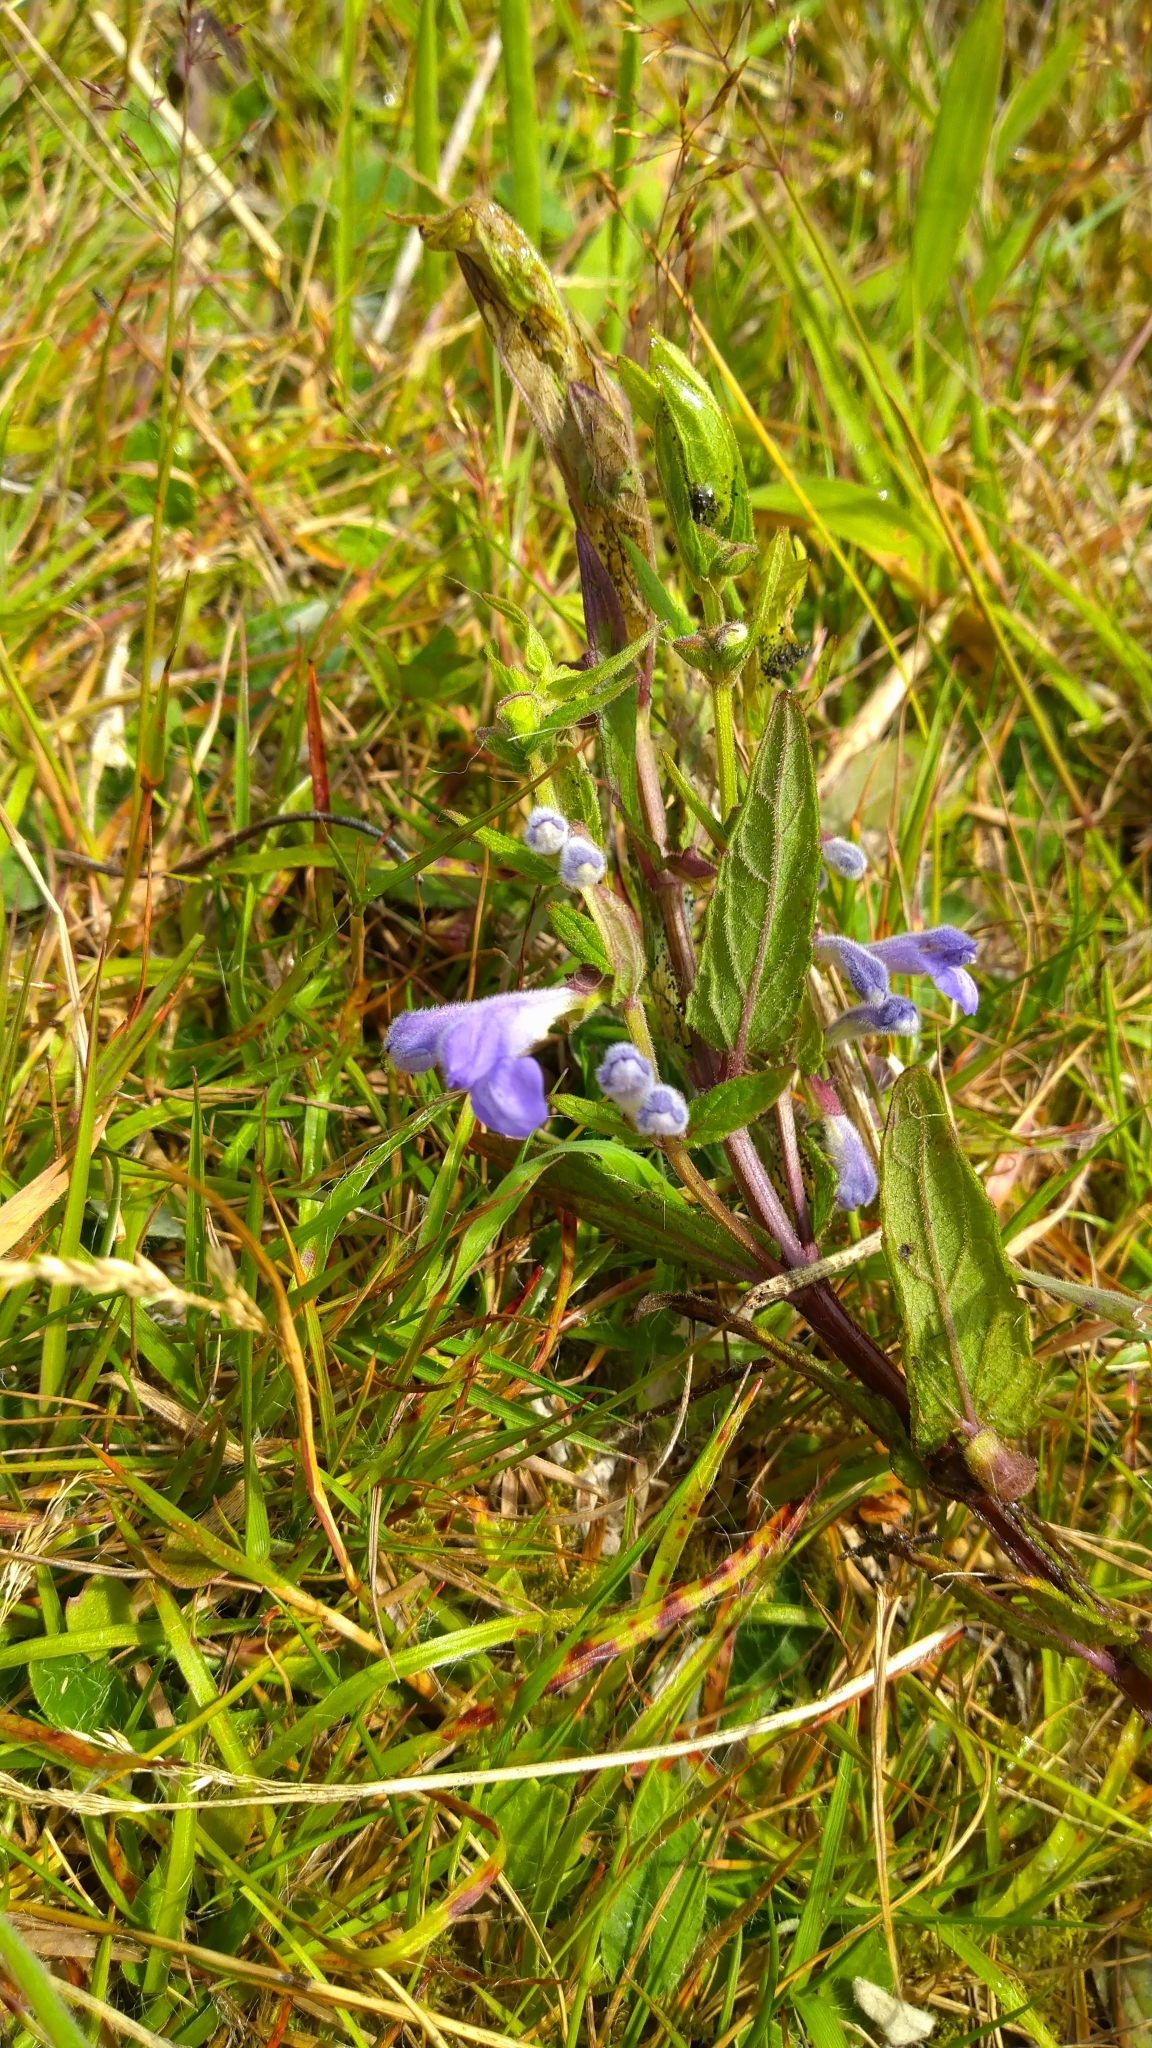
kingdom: Plantae
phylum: Tracheophyta
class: Magnoliopsida
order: Lamiales
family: Lamiaceae
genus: Scutellaria
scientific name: Scutellaria galericulata
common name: Skullcap
